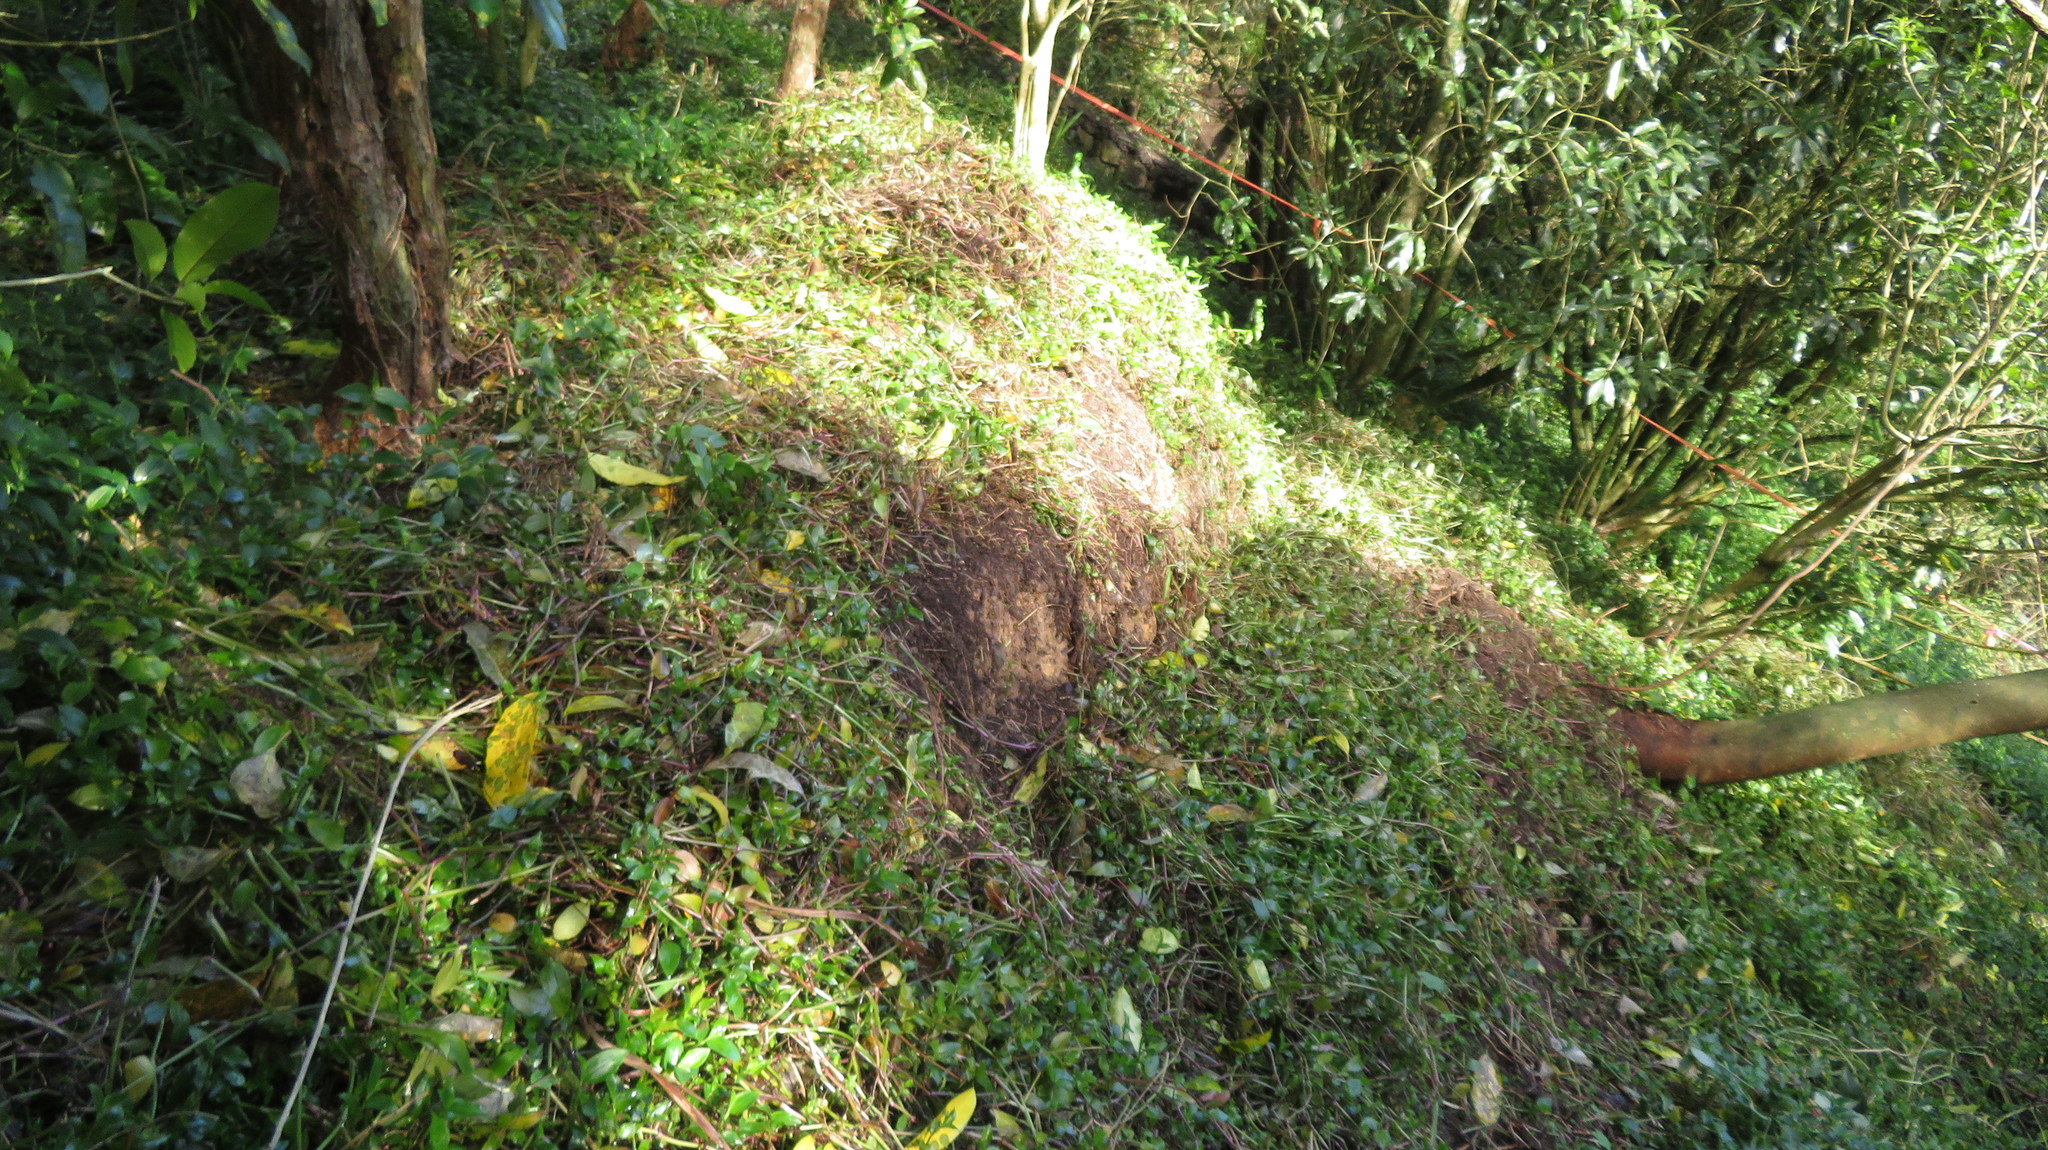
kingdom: Plantae
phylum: Tracheophyta
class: Liliopsida
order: Commelinales
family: Commelinaceae
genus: Tradescantia
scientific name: Tradescantia fluminensis
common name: Wandering-jew
